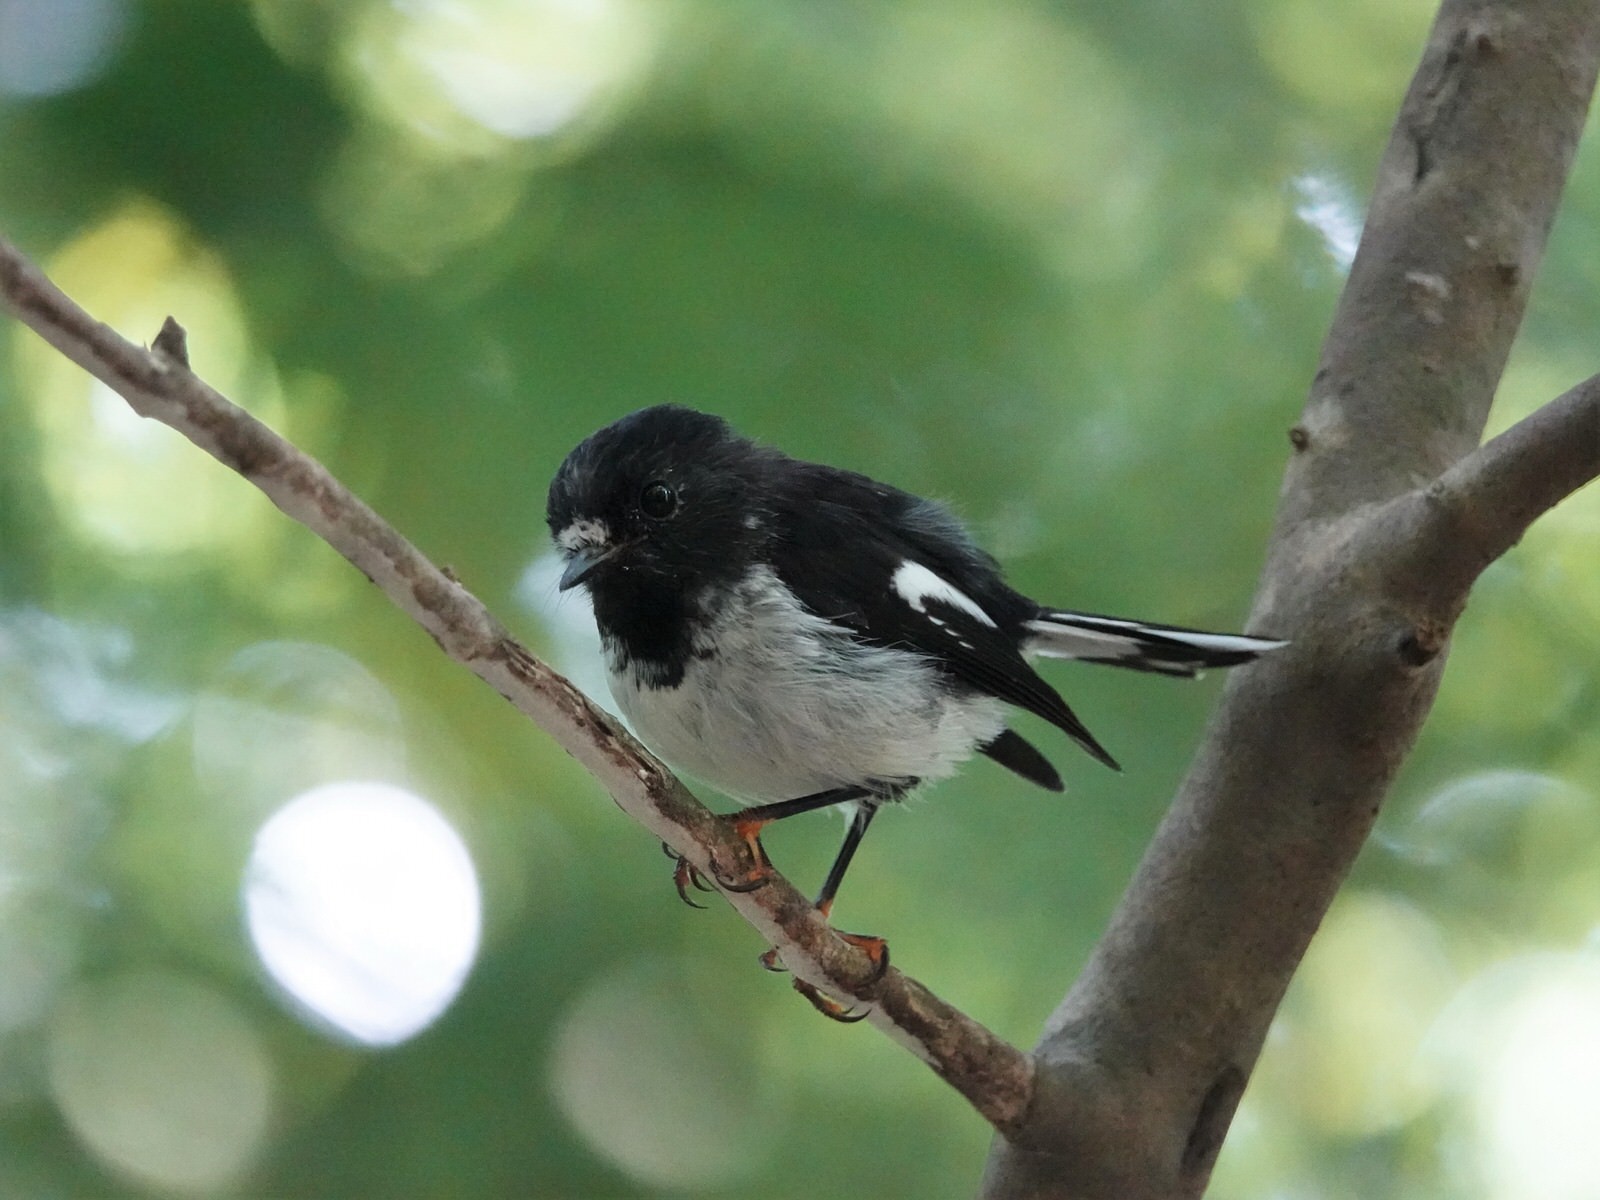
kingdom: Animalia
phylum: Chordata
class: Aves
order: Passeriformes
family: Petroicidae
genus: Petroica
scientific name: Petroica macrocephala
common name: Tomtit
